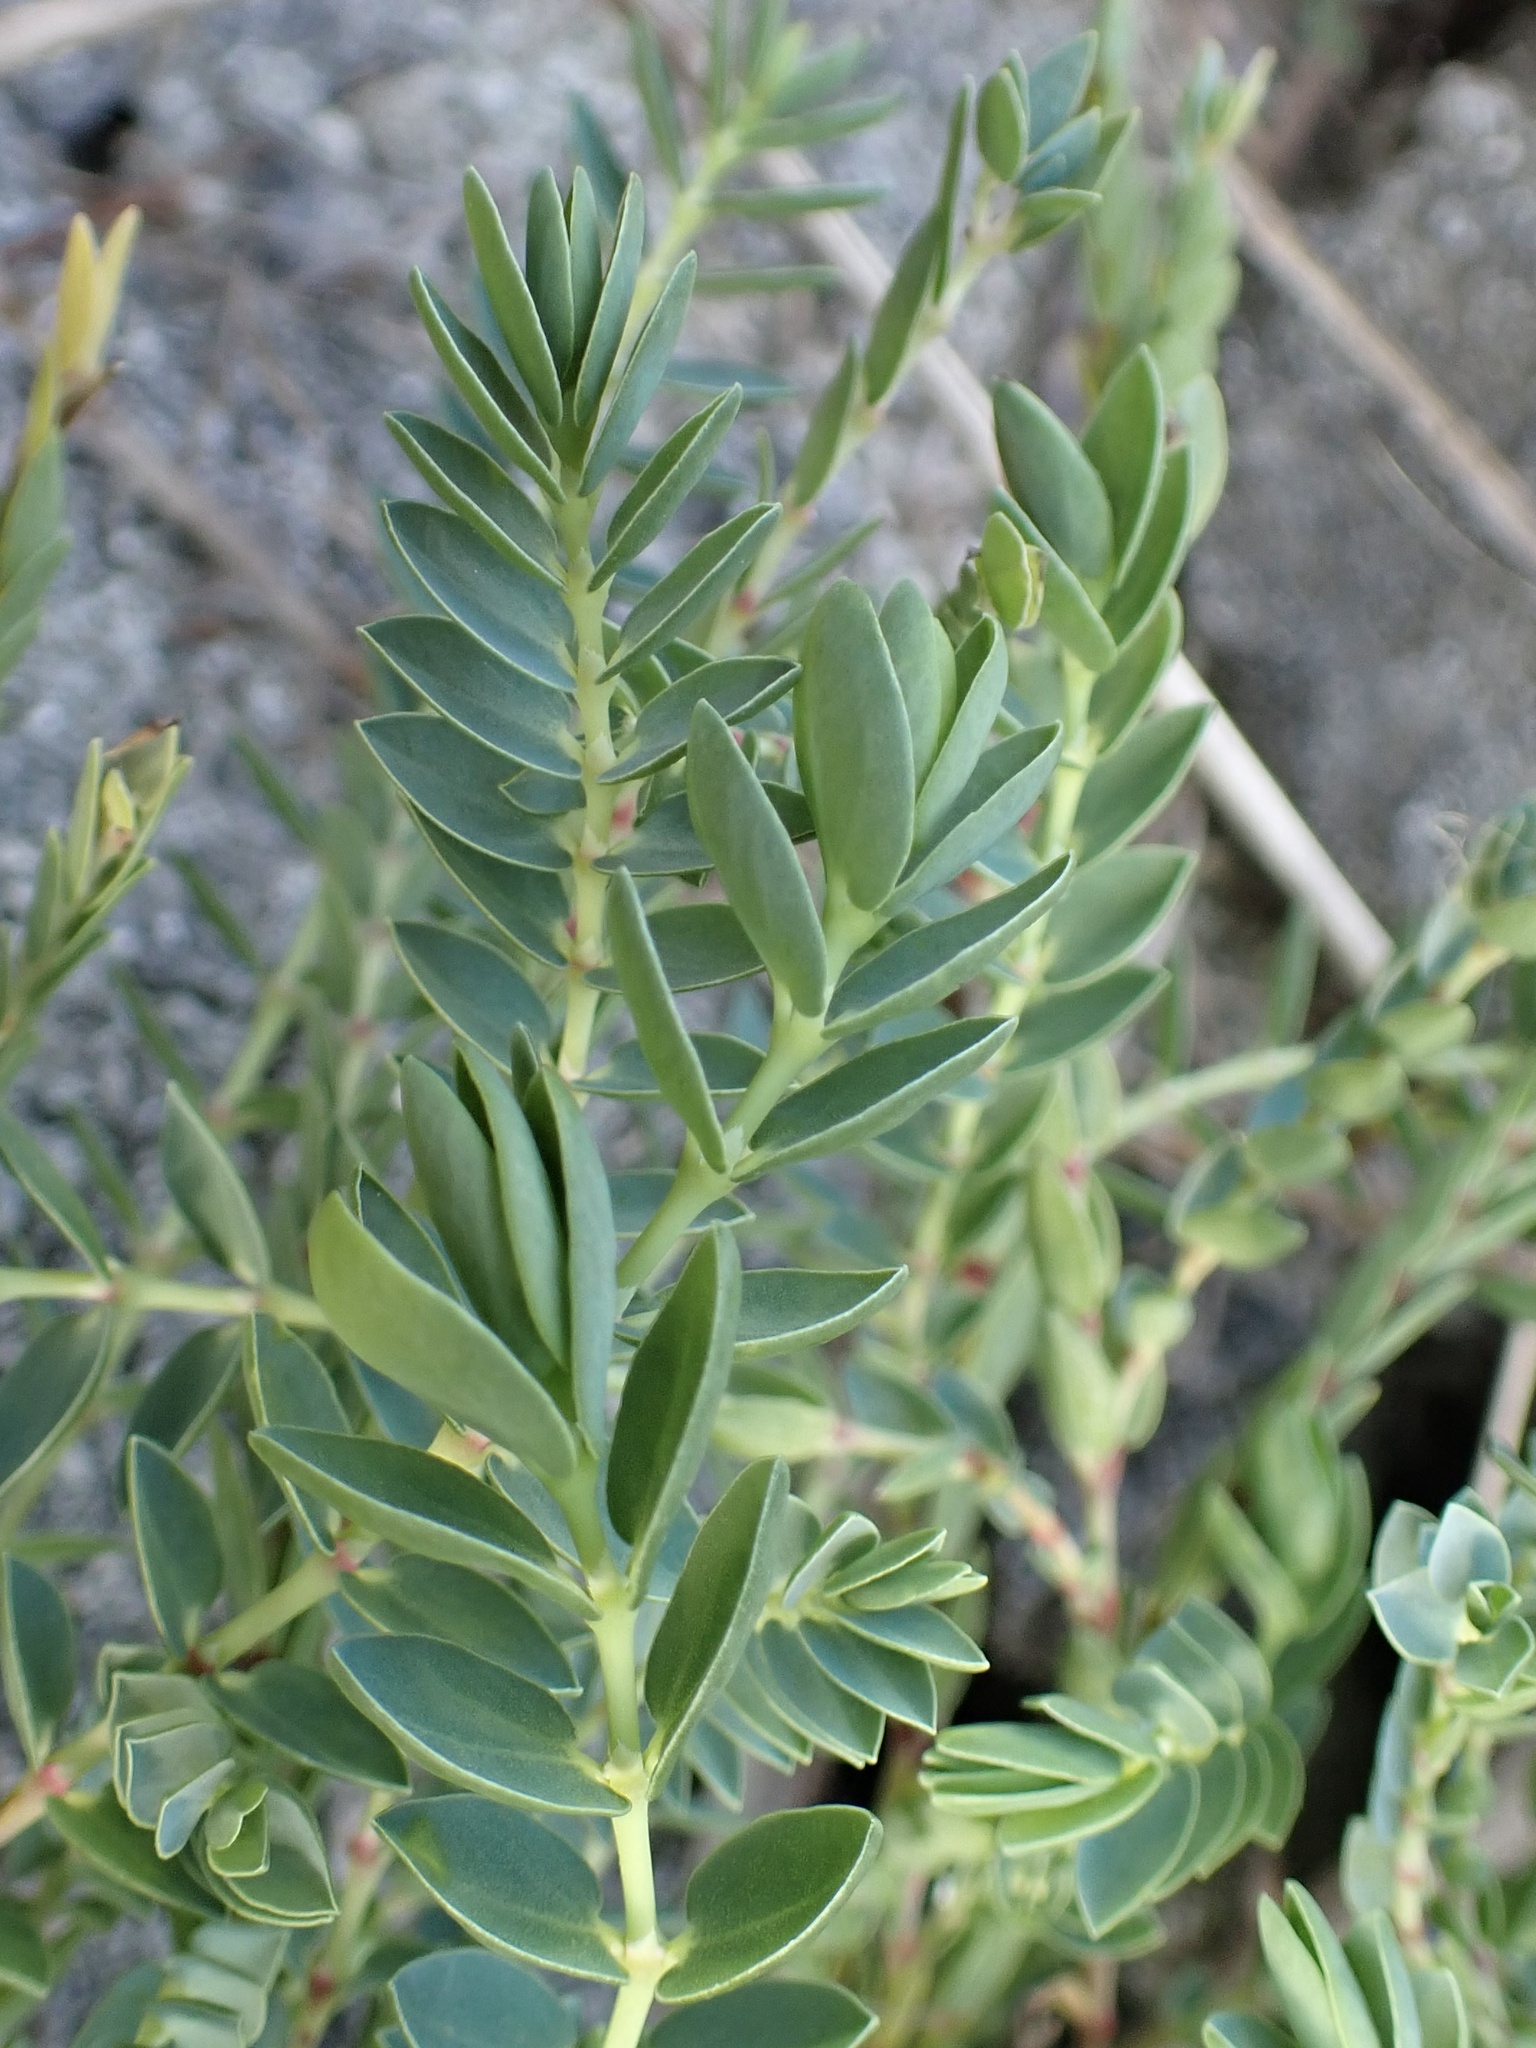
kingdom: Plantae
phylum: Tracheophyta
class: Magnoliopsida
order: Malpighiales
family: Euphorbiaceae
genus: Euphorbia
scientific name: Euphorbia mesembryanthemifolia
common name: Coastal beach sandmat
